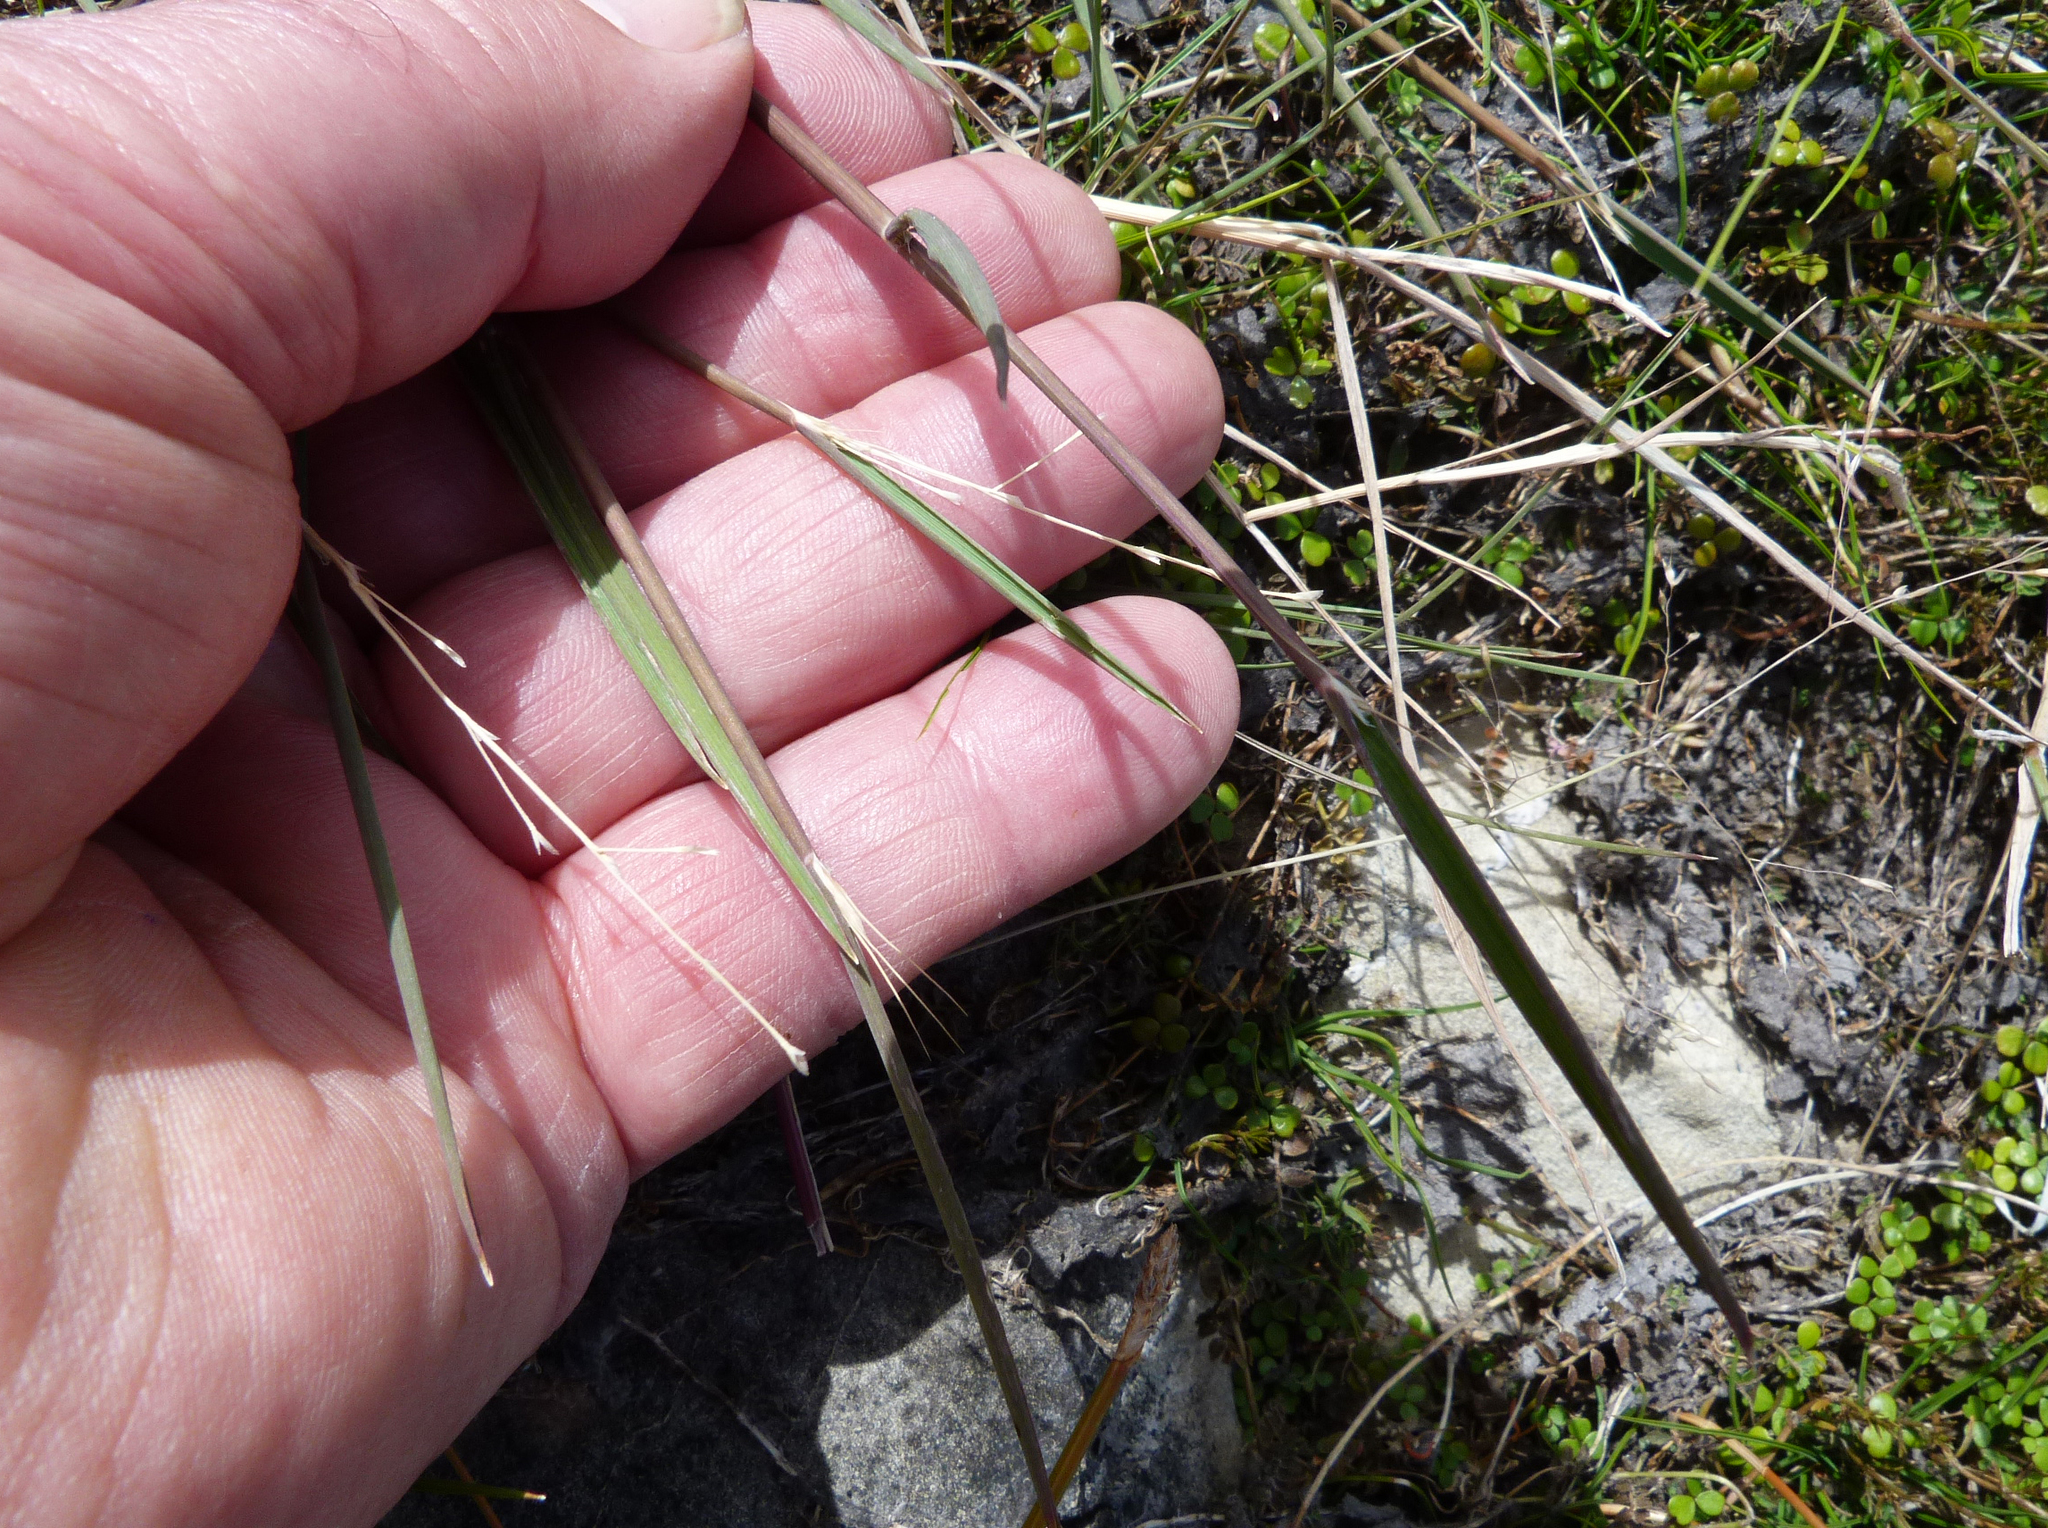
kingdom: Plantae
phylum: Tracheophyta
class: Liliopsida
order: Poales
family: Poaceae
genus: Amphibromus
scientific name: Amphibromus fluitans
